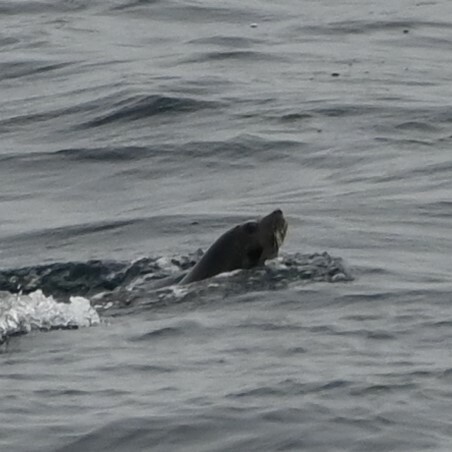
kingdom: Animalia
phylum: Chordata
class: Mammalia
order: Carnivora
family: Phocidae
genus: Pagophilus
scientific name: Pagophilus groenlandicus
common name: Harp seal
